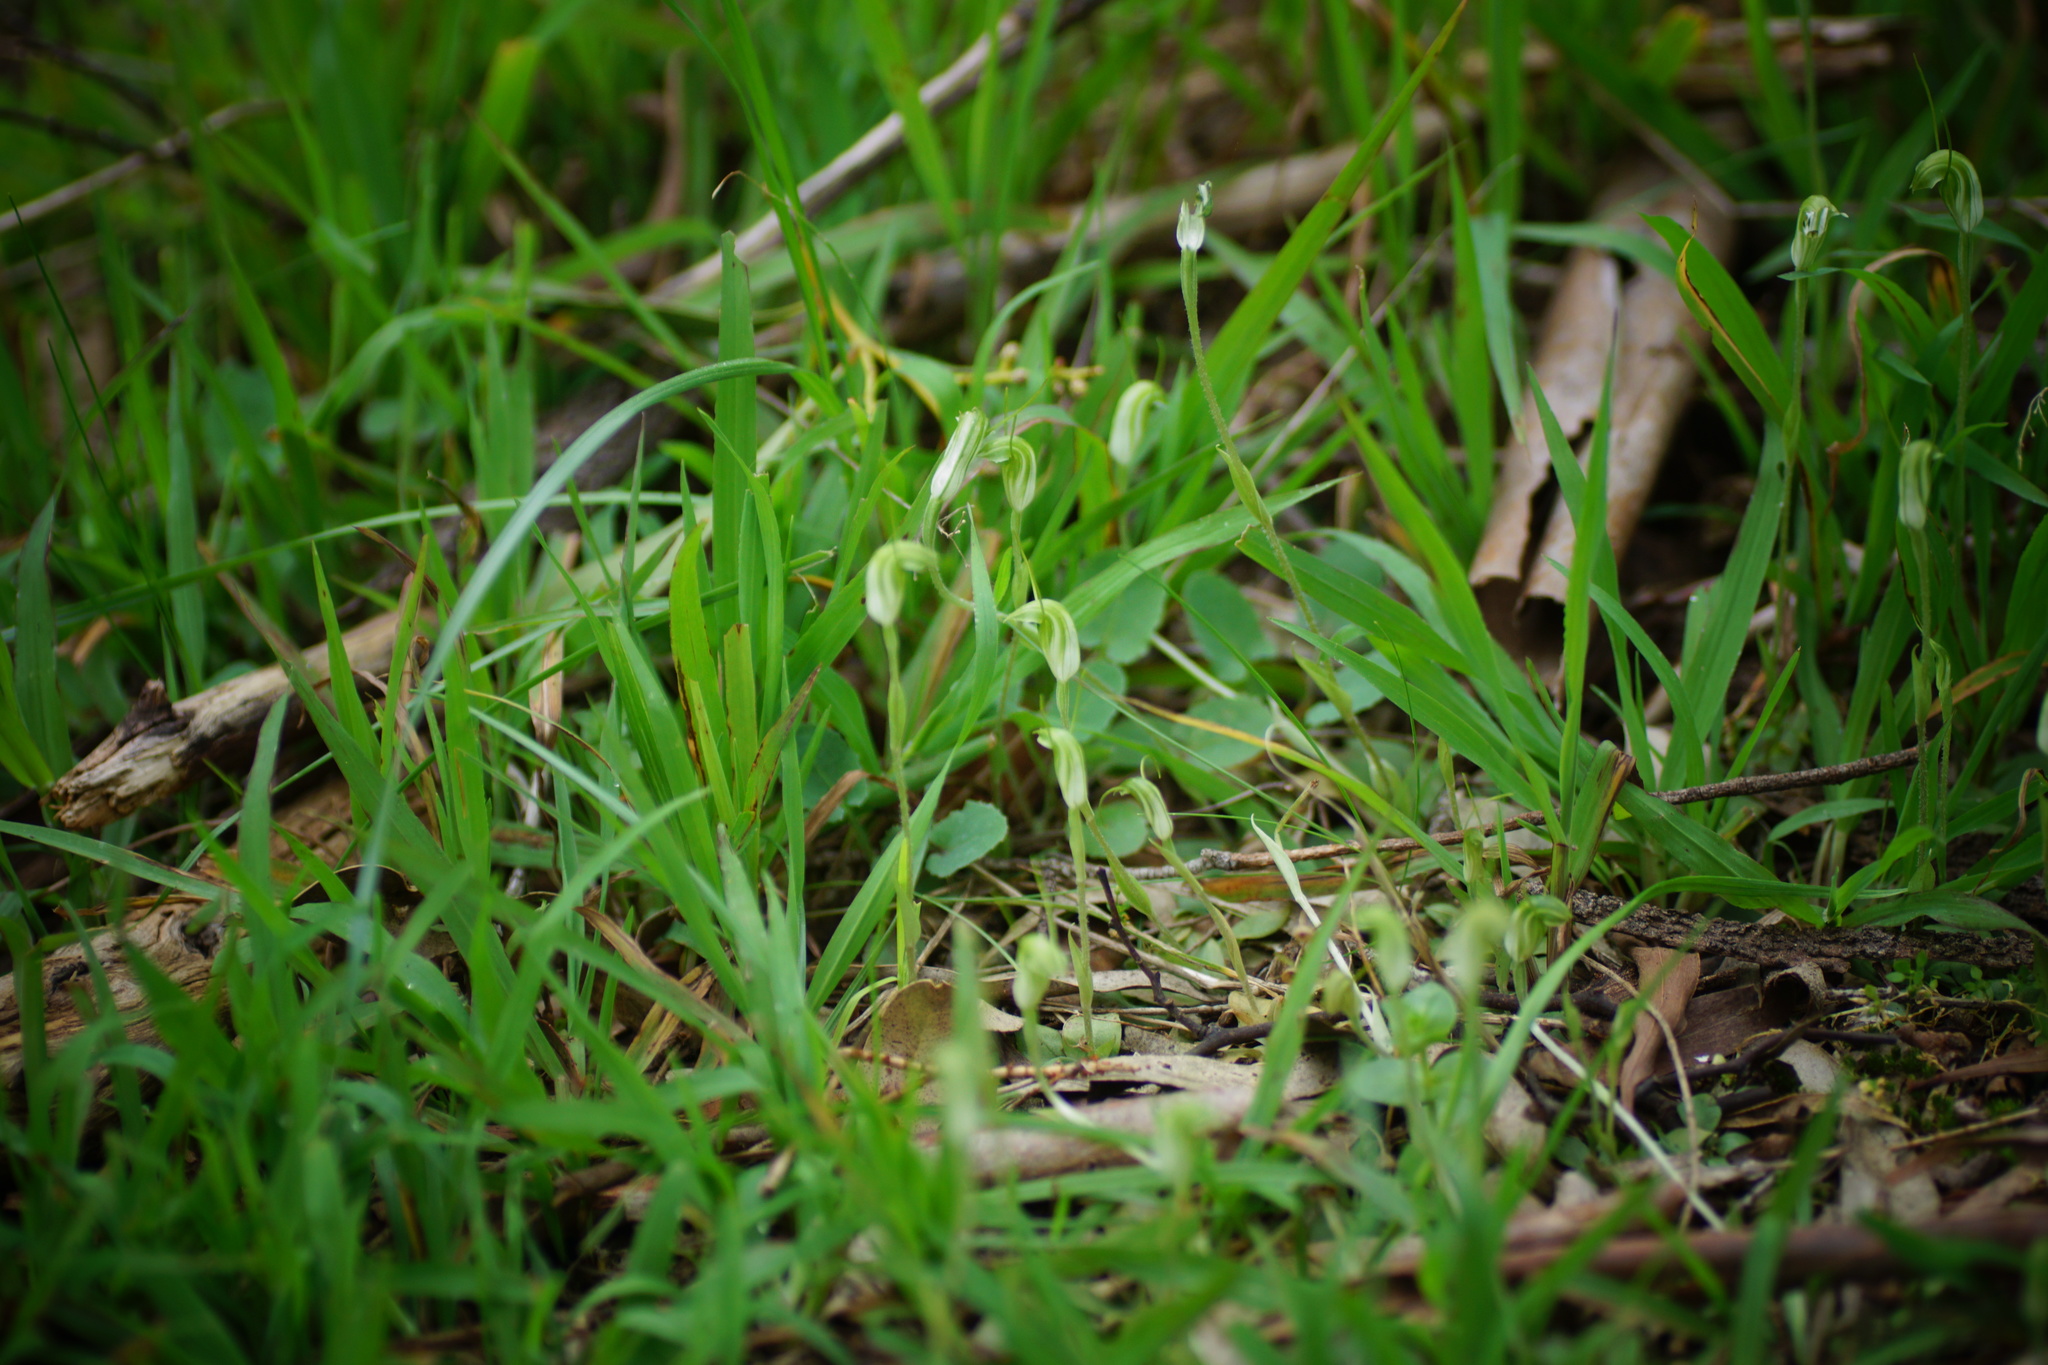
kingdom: Plantae
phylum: Tracheophyta
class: Liliopsida
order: Asparagales
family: Orchidaceae
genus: Pterostylis
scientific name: Pterostylis nana
